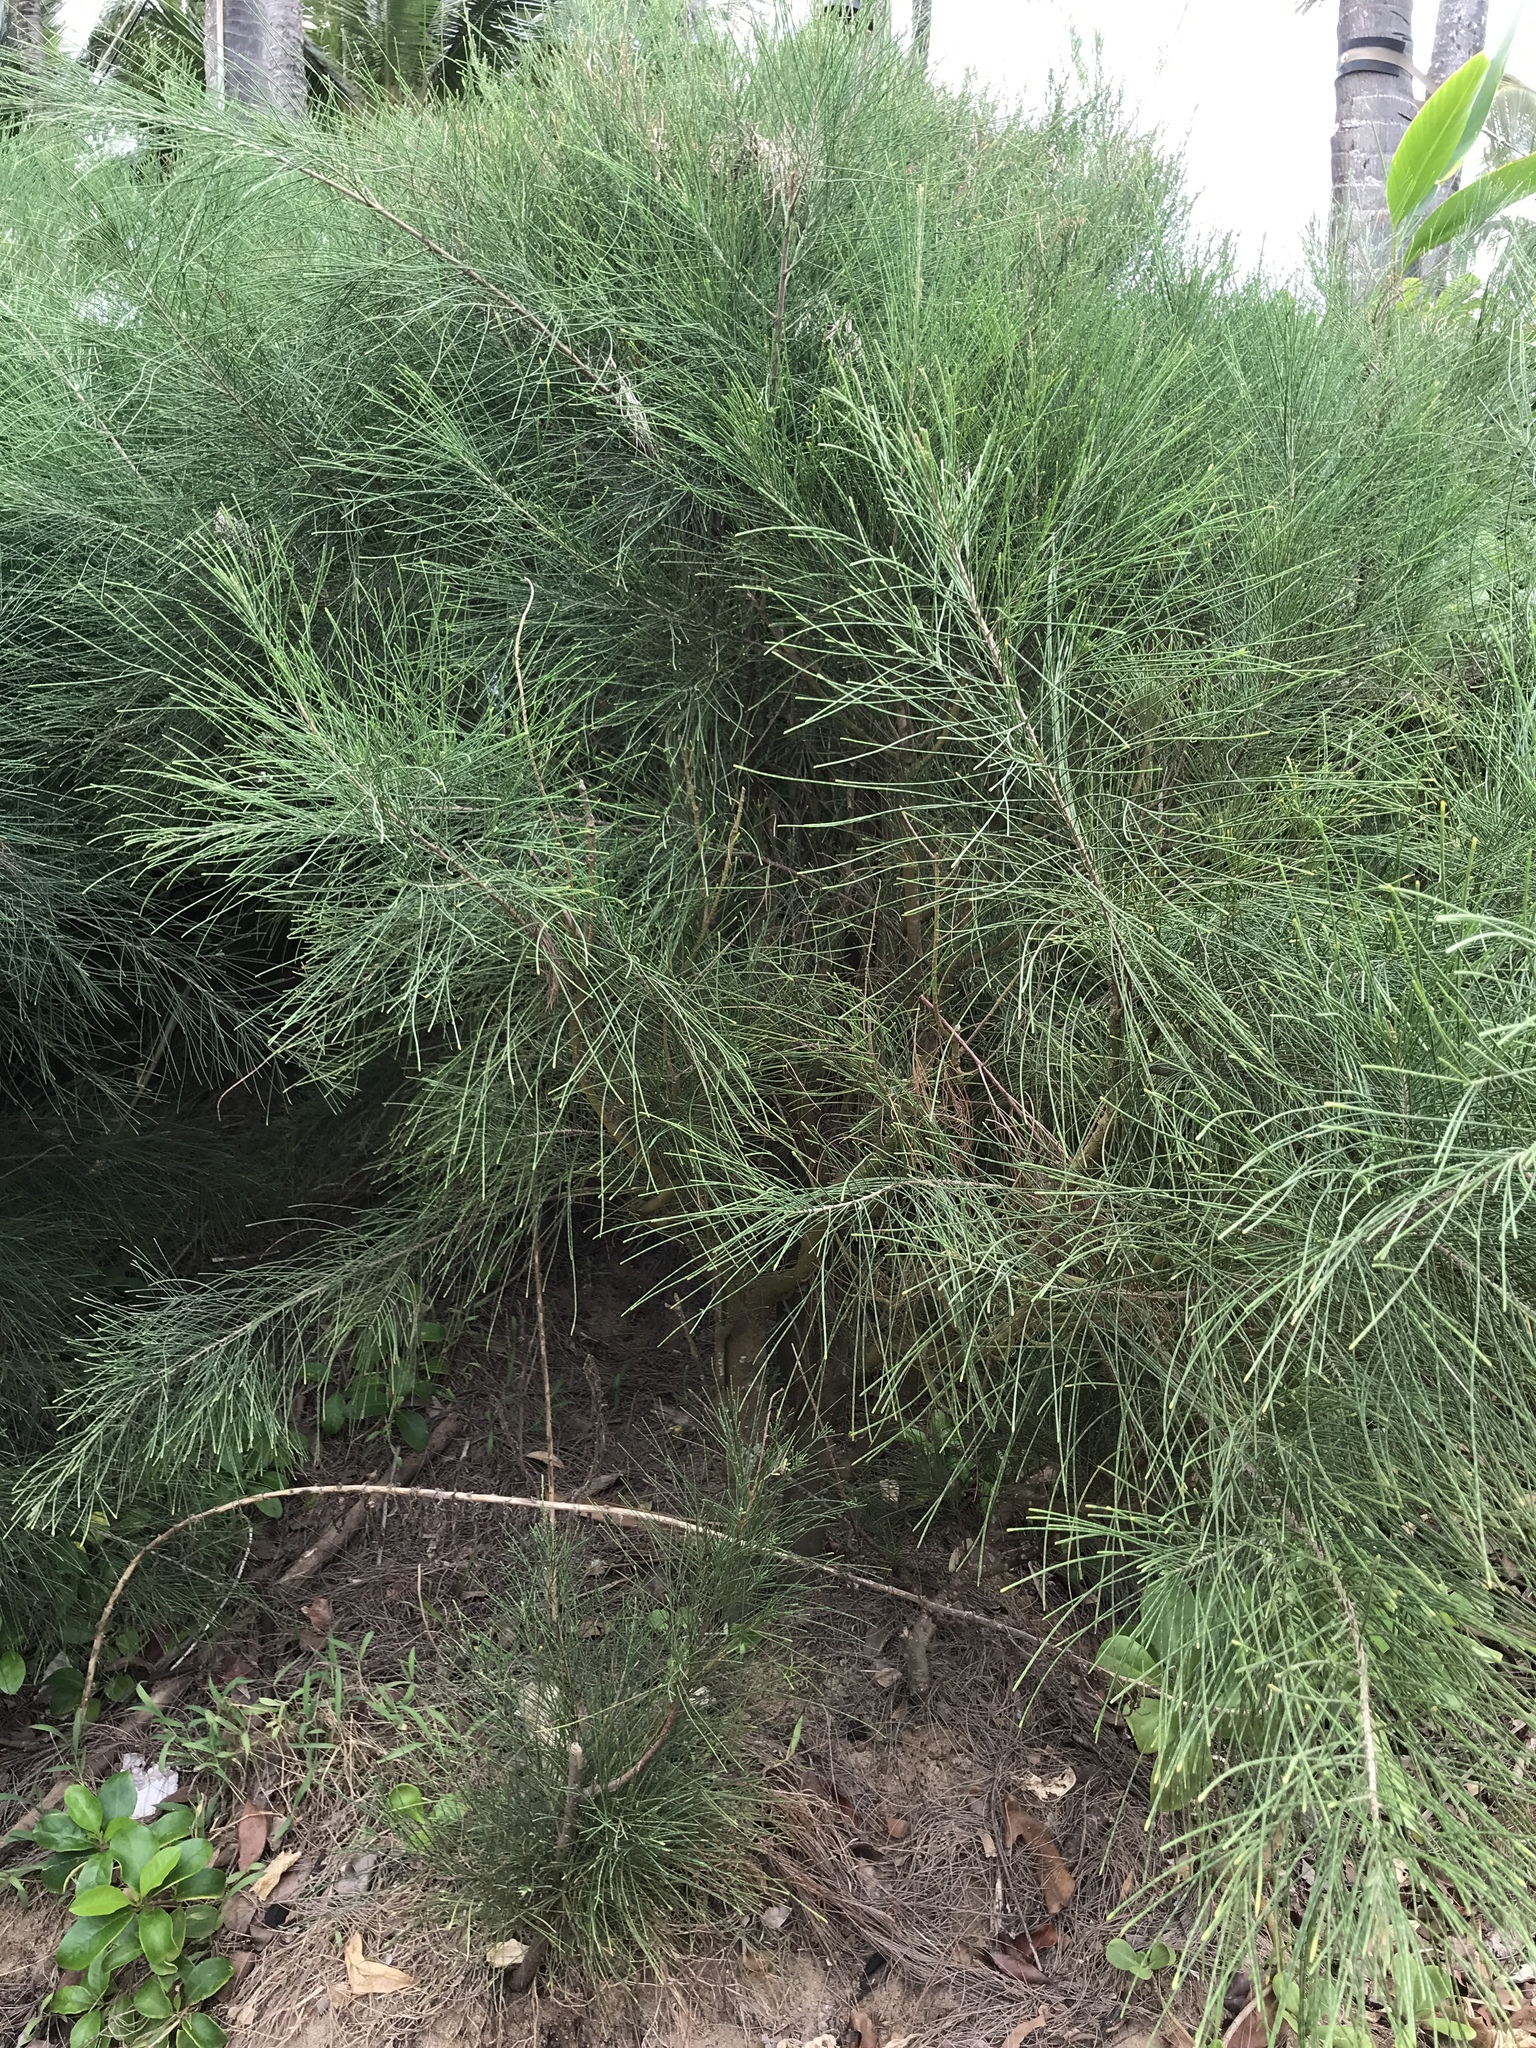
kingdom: Plantae
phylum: Tracheophyta
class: Magnoliopsida
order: Fagales
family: Casuarinaceae
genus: Casuarina
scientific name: Casuarina equisetifolia
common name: Beach sheoak
